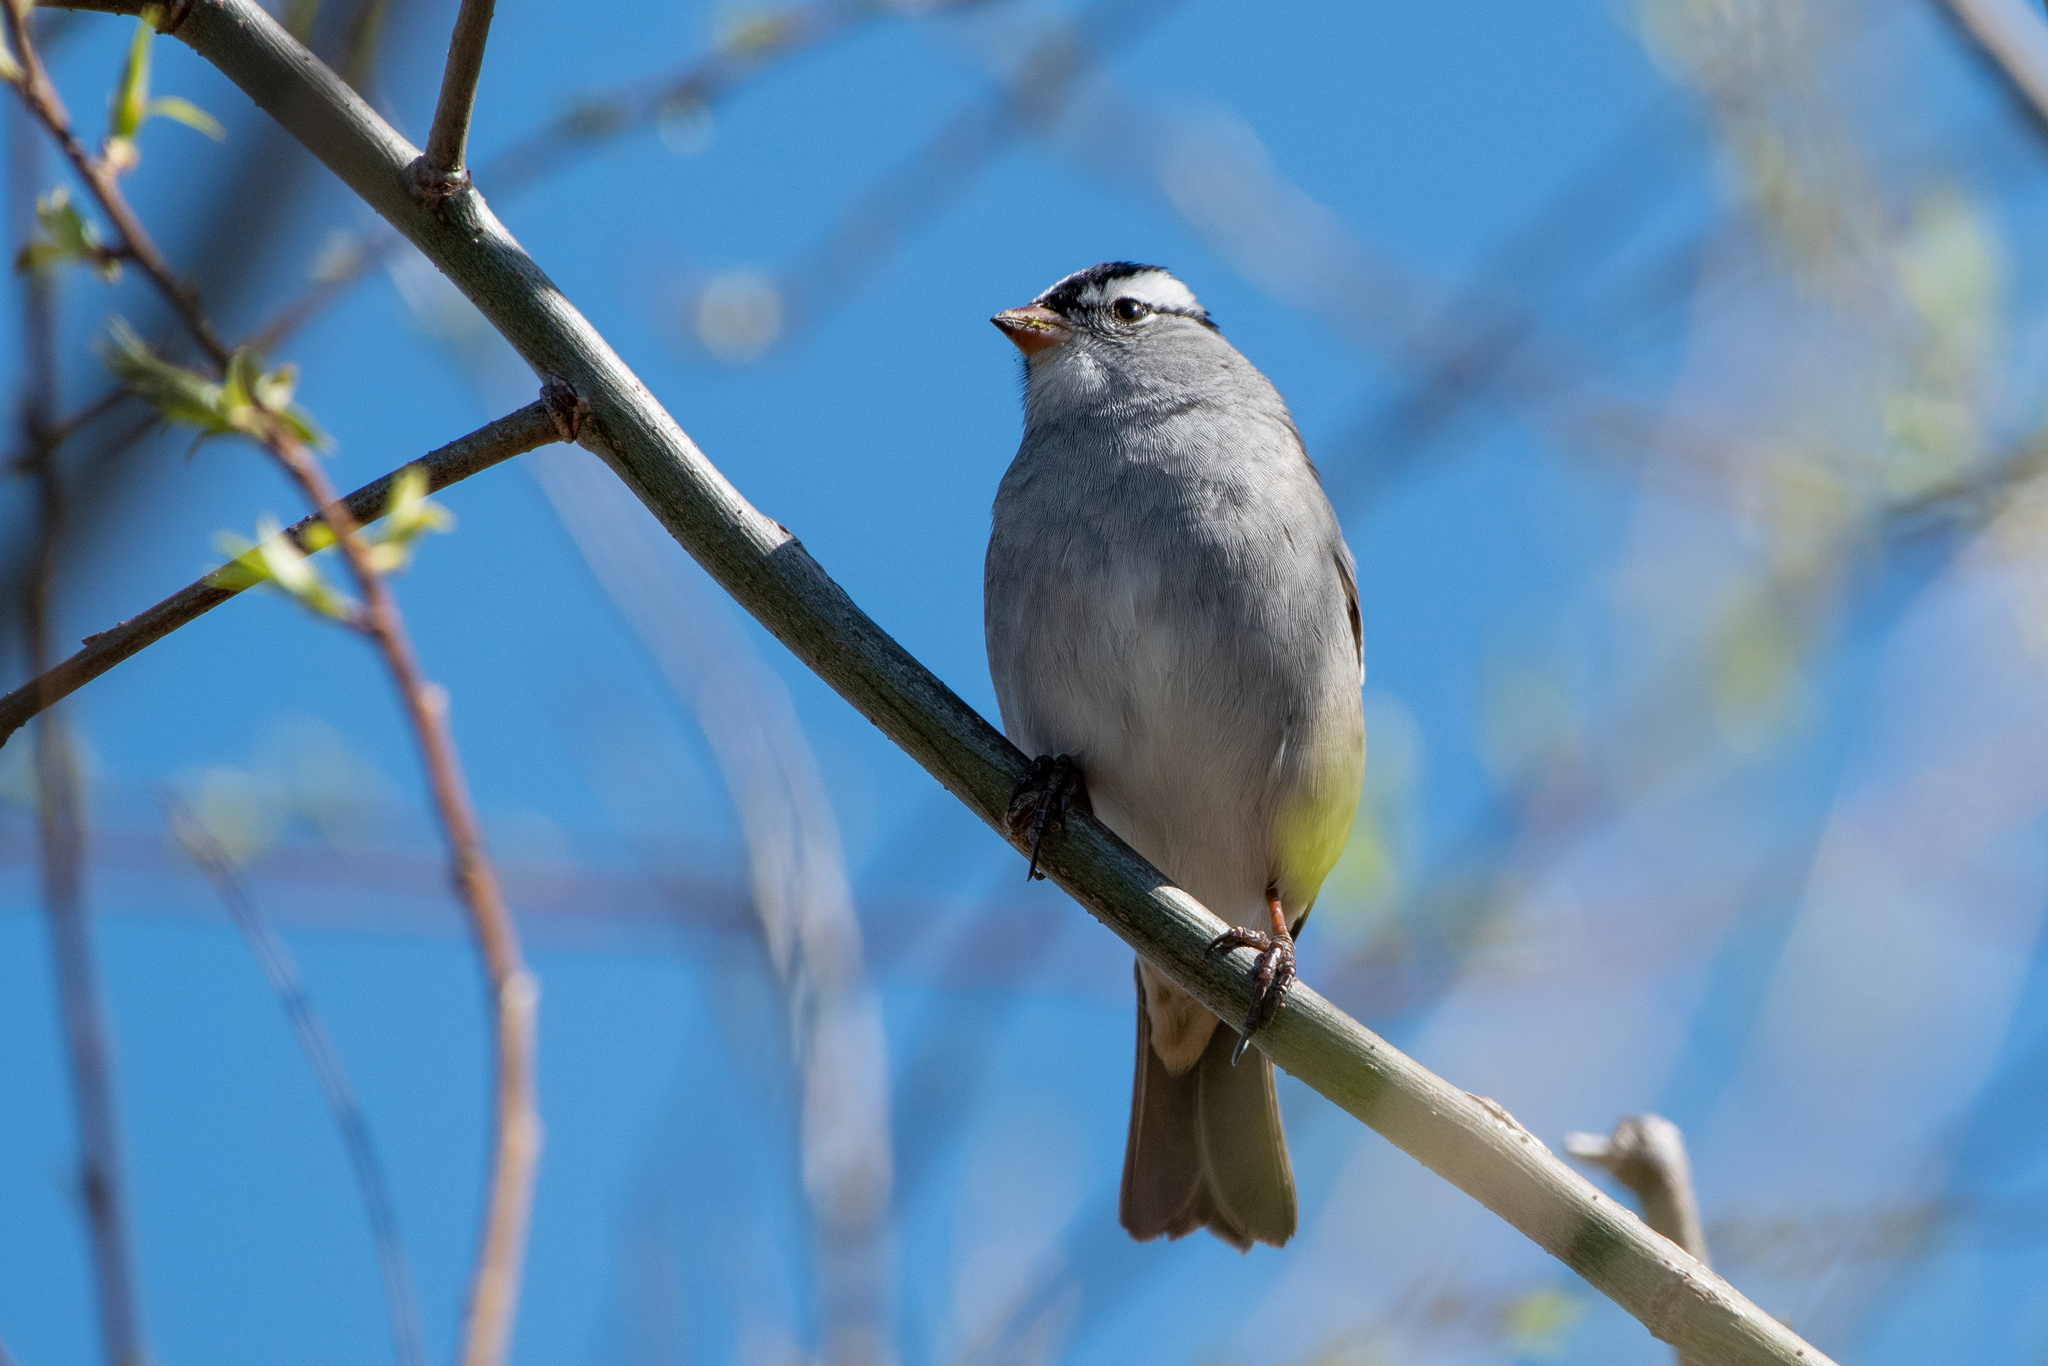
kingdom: Animalia
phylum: Chordata
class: Aves
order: Passeriformes
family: Passerellidae
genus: Zonotrichia
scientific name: Zonotrichia leucophrys
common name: White-crowned sparrow
